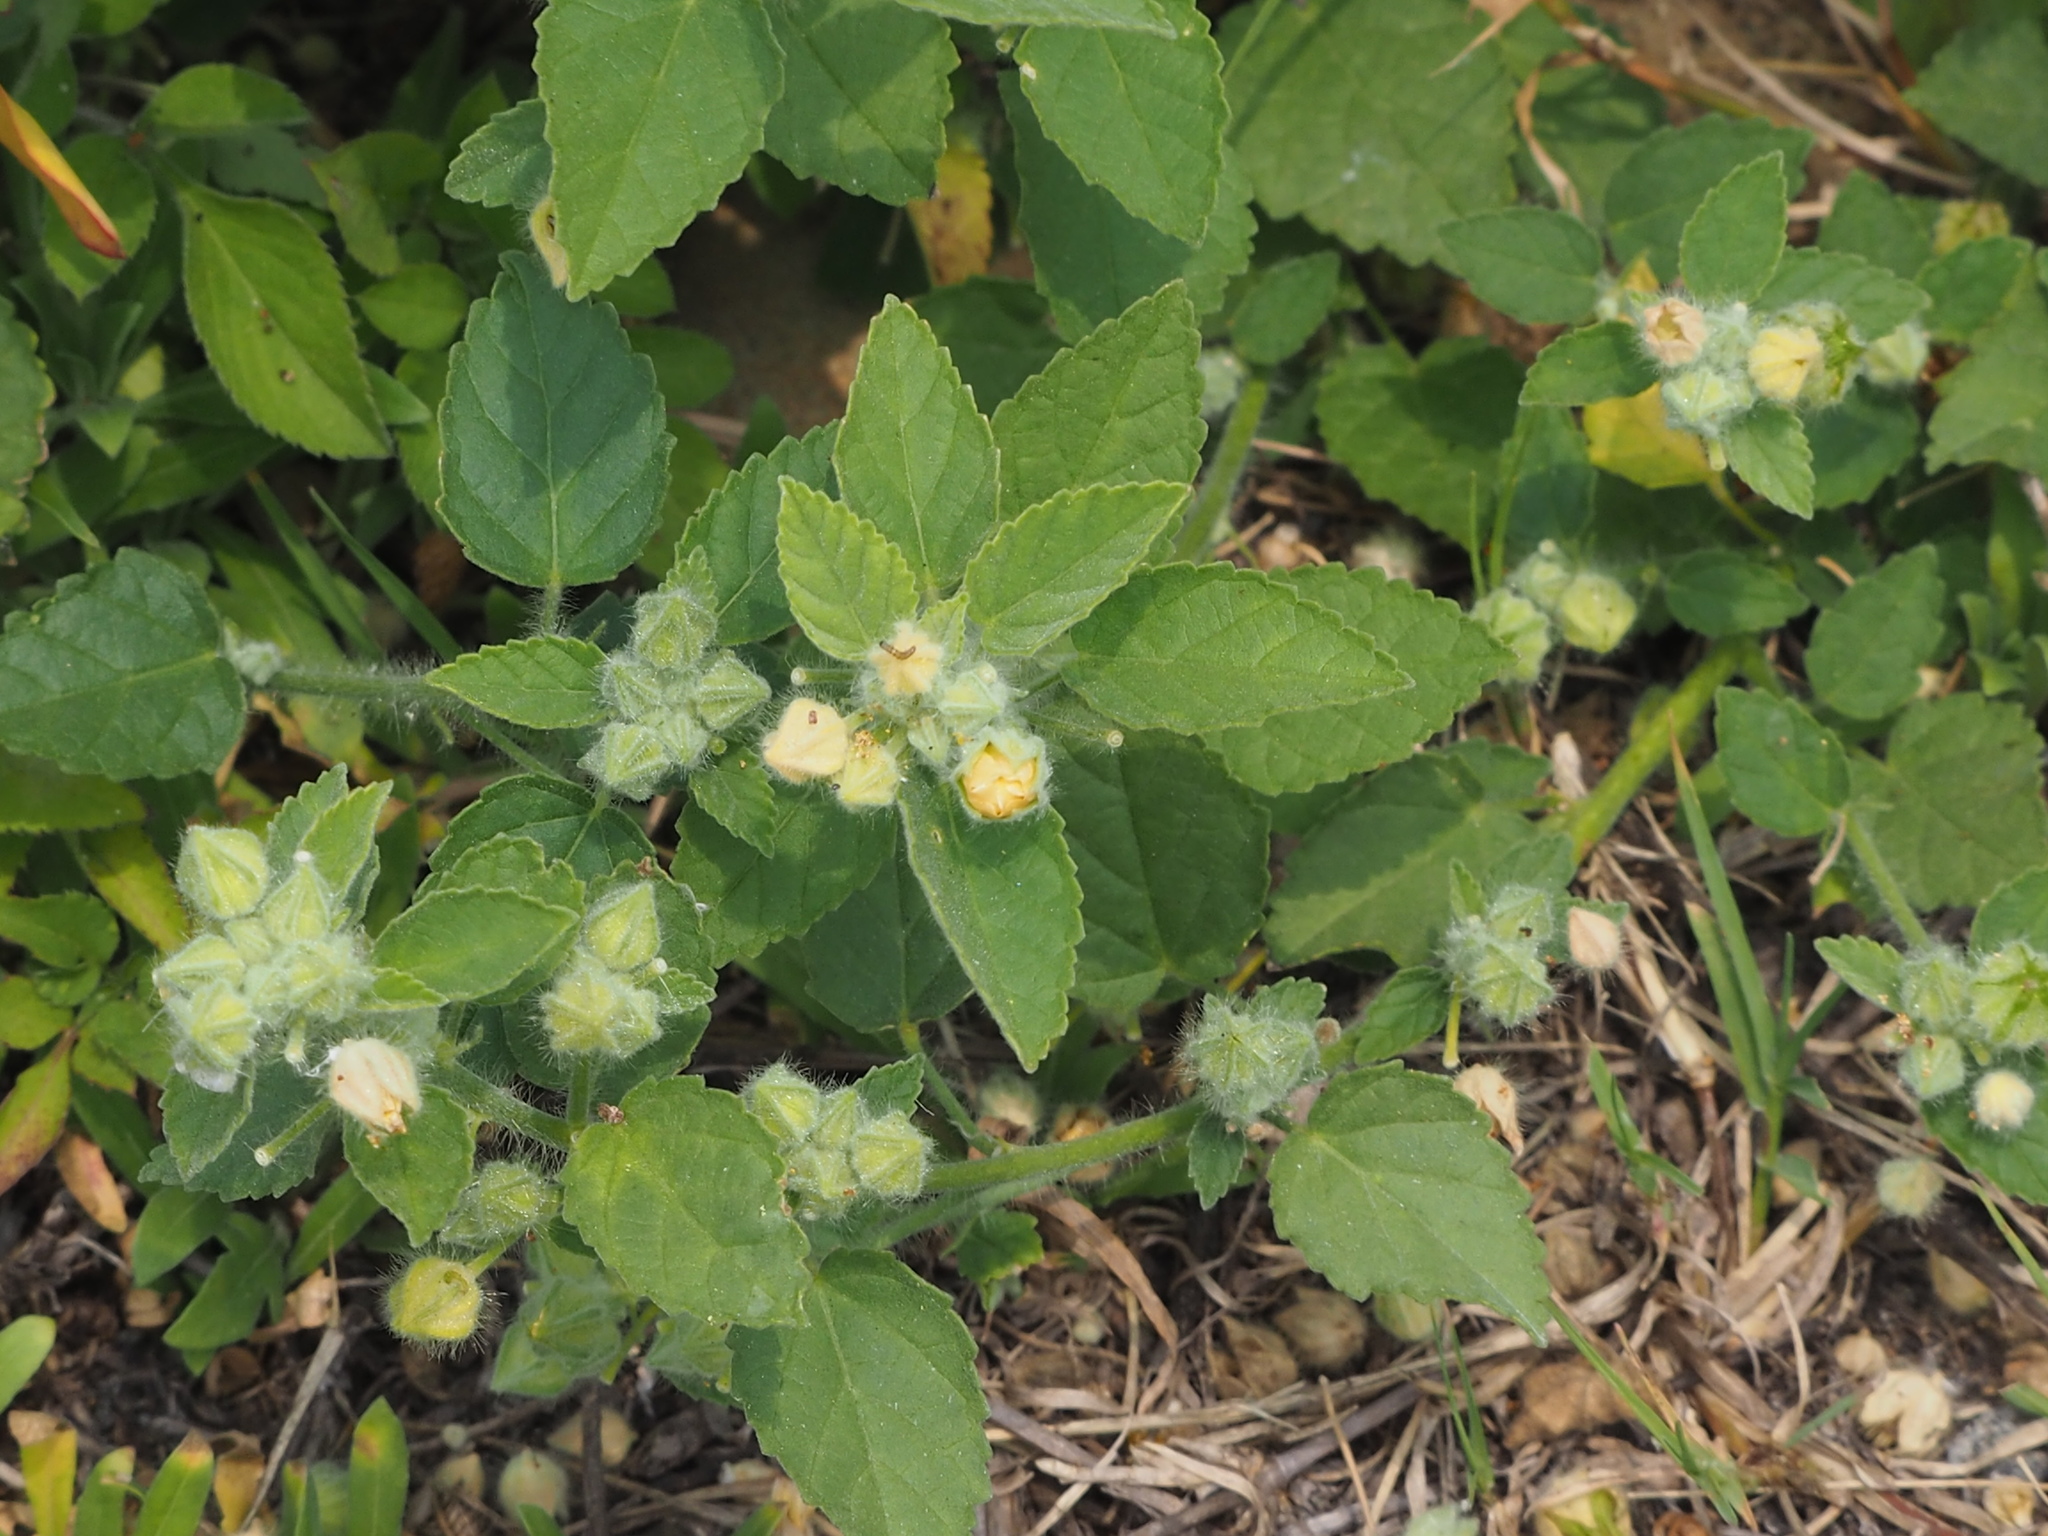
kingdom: Plantae
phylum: Tracheophyta
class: Magnoliopsida
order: Malvales
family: Malvaceae
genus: Sida
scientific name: Sida cordifolia
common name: Ilima
